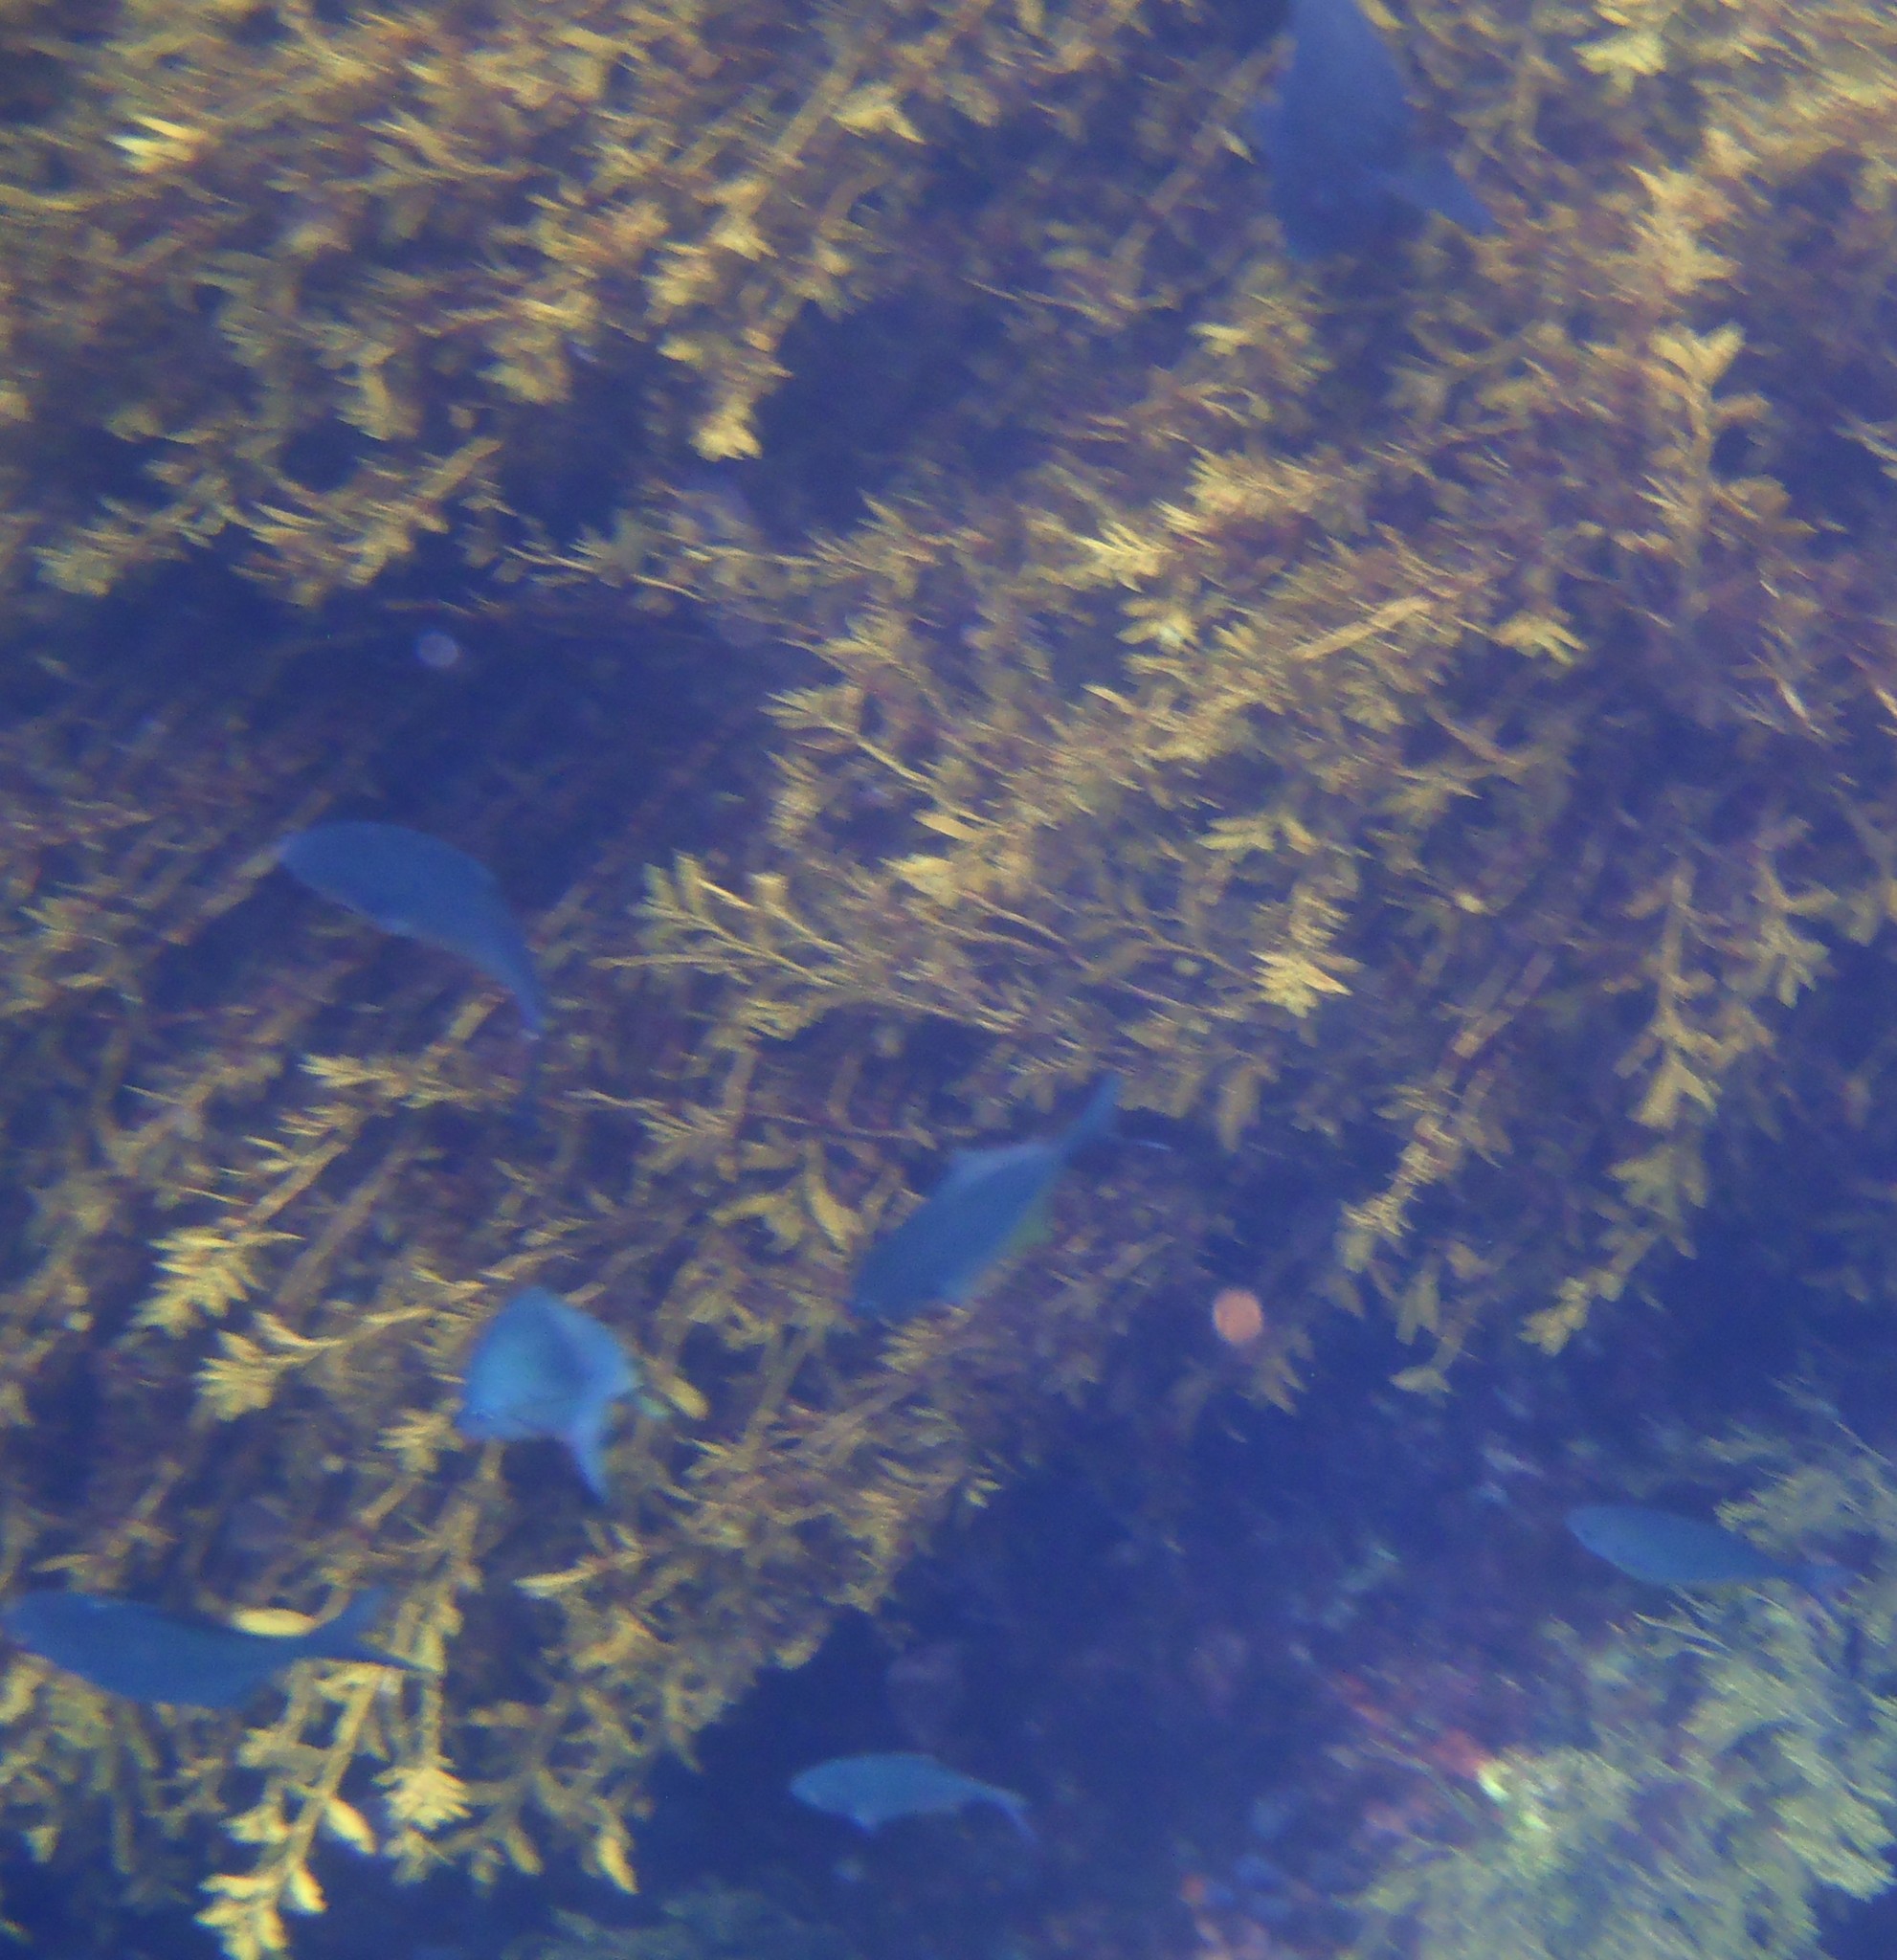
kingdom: Animalia
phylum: Chordata
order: Perciformes
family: Kyphosidae
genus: Scorpis
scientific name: Scorpis violacea
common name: Blue maomao
